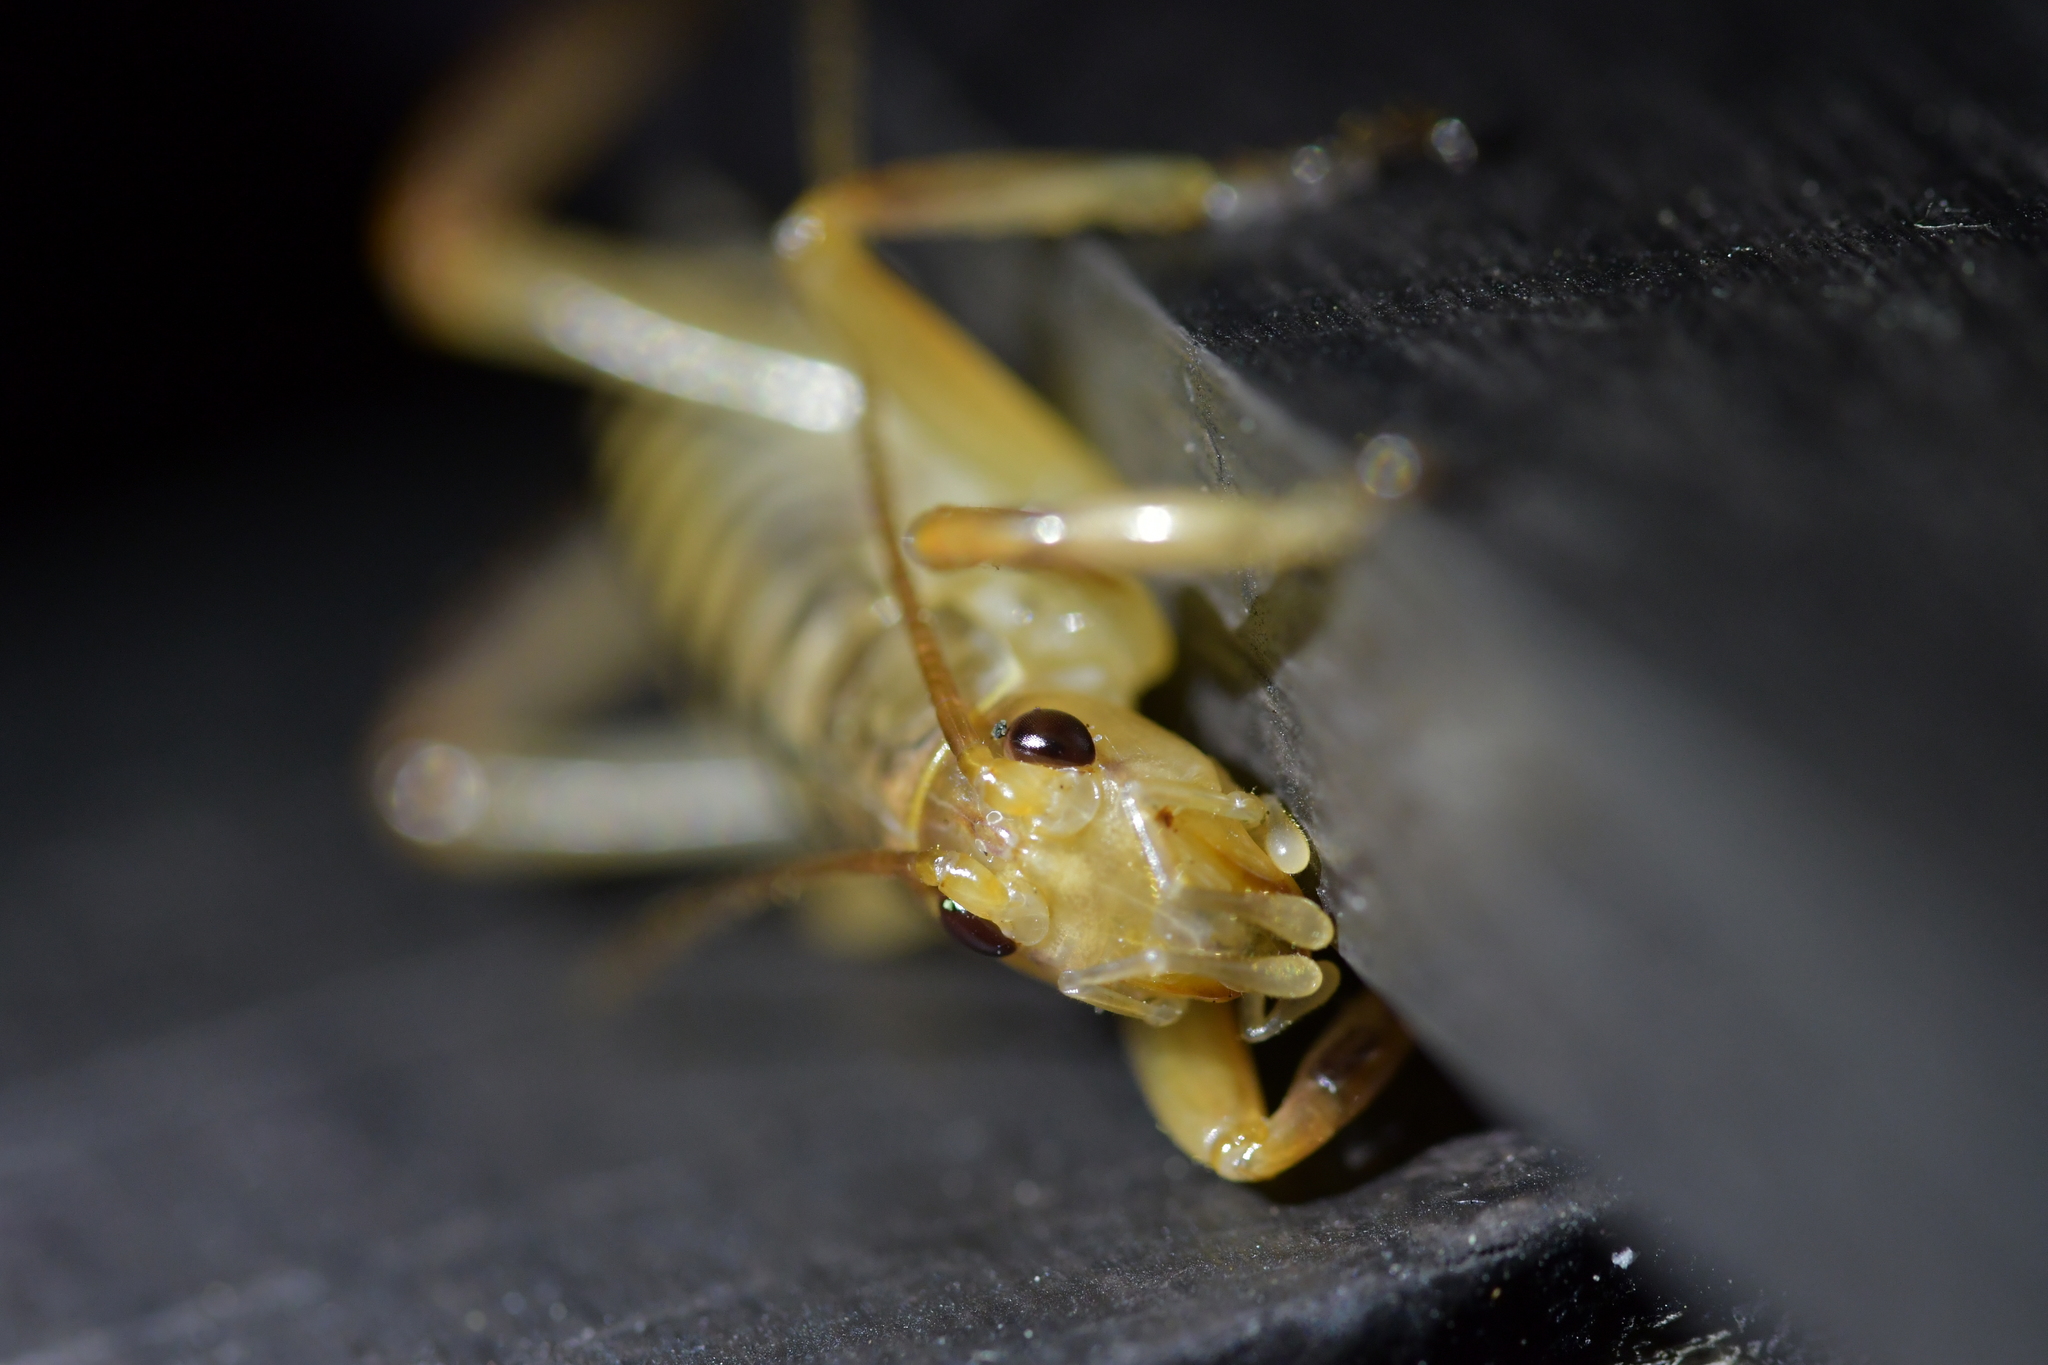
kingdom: Animalia
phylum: Arthropoda
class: Insecta
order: Orthoptera
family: Anostostomatidae
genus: Hemideina
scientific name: Hemideina crassidens
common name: Wellington tree weta
